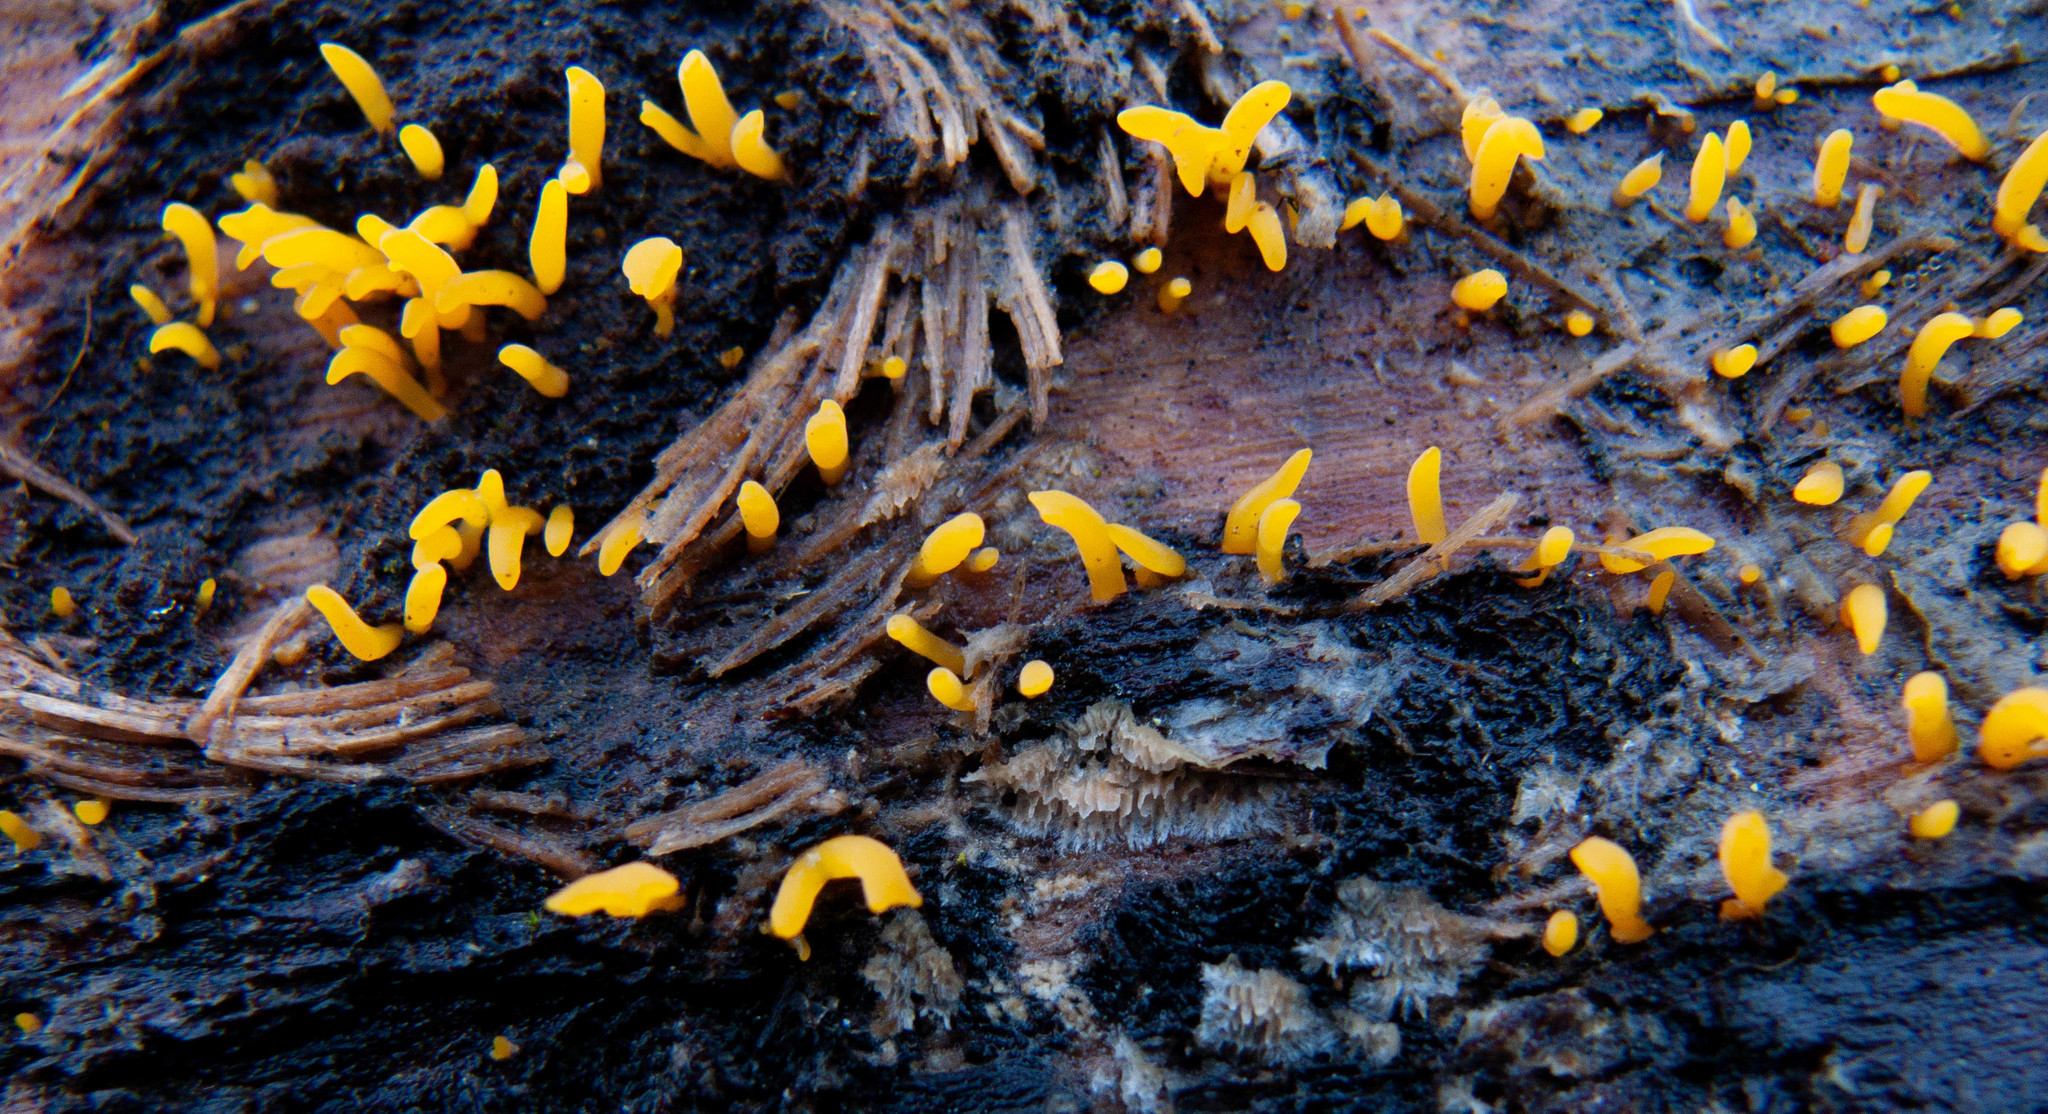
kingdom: Fungi
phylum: Basidiomycota
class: Dacrymycetes
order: Dacrymycetales
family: Dacrymycetaceae
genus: Calocera
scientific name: Calocera cornea
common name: Small stagshorn
